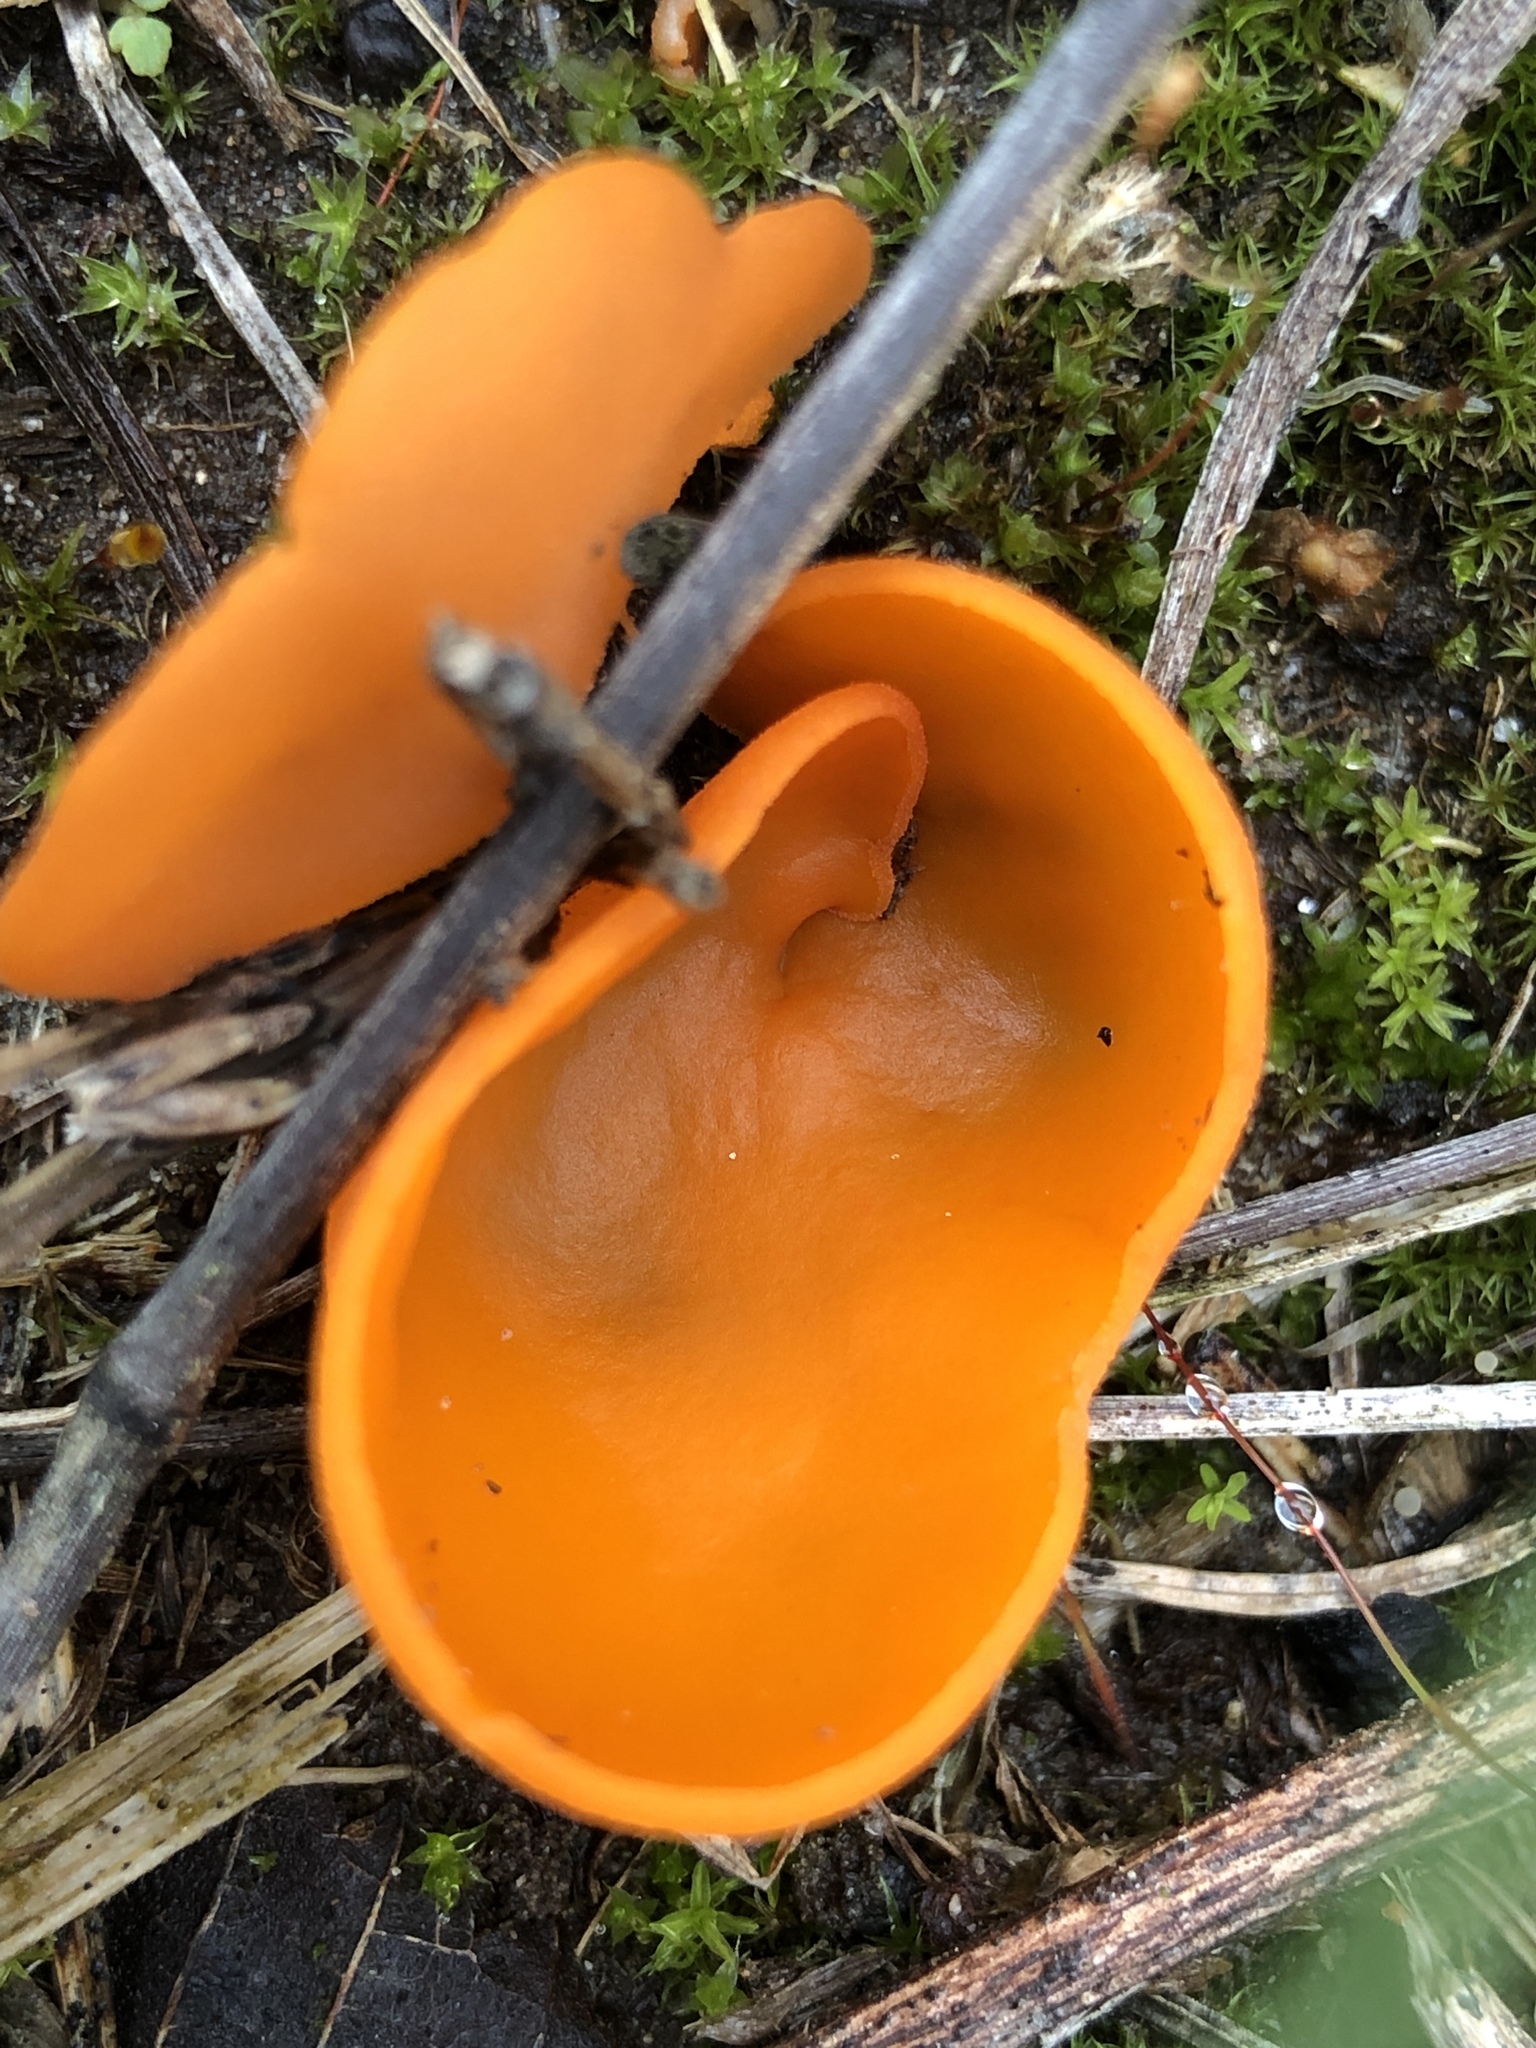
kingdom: Fungi
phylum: Ascomycota
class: Pezizomycetes
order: Pezizales
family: Pyronemataceae
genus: Aleuria
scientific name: Aleuria aurantia
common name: Orange peel fungus
